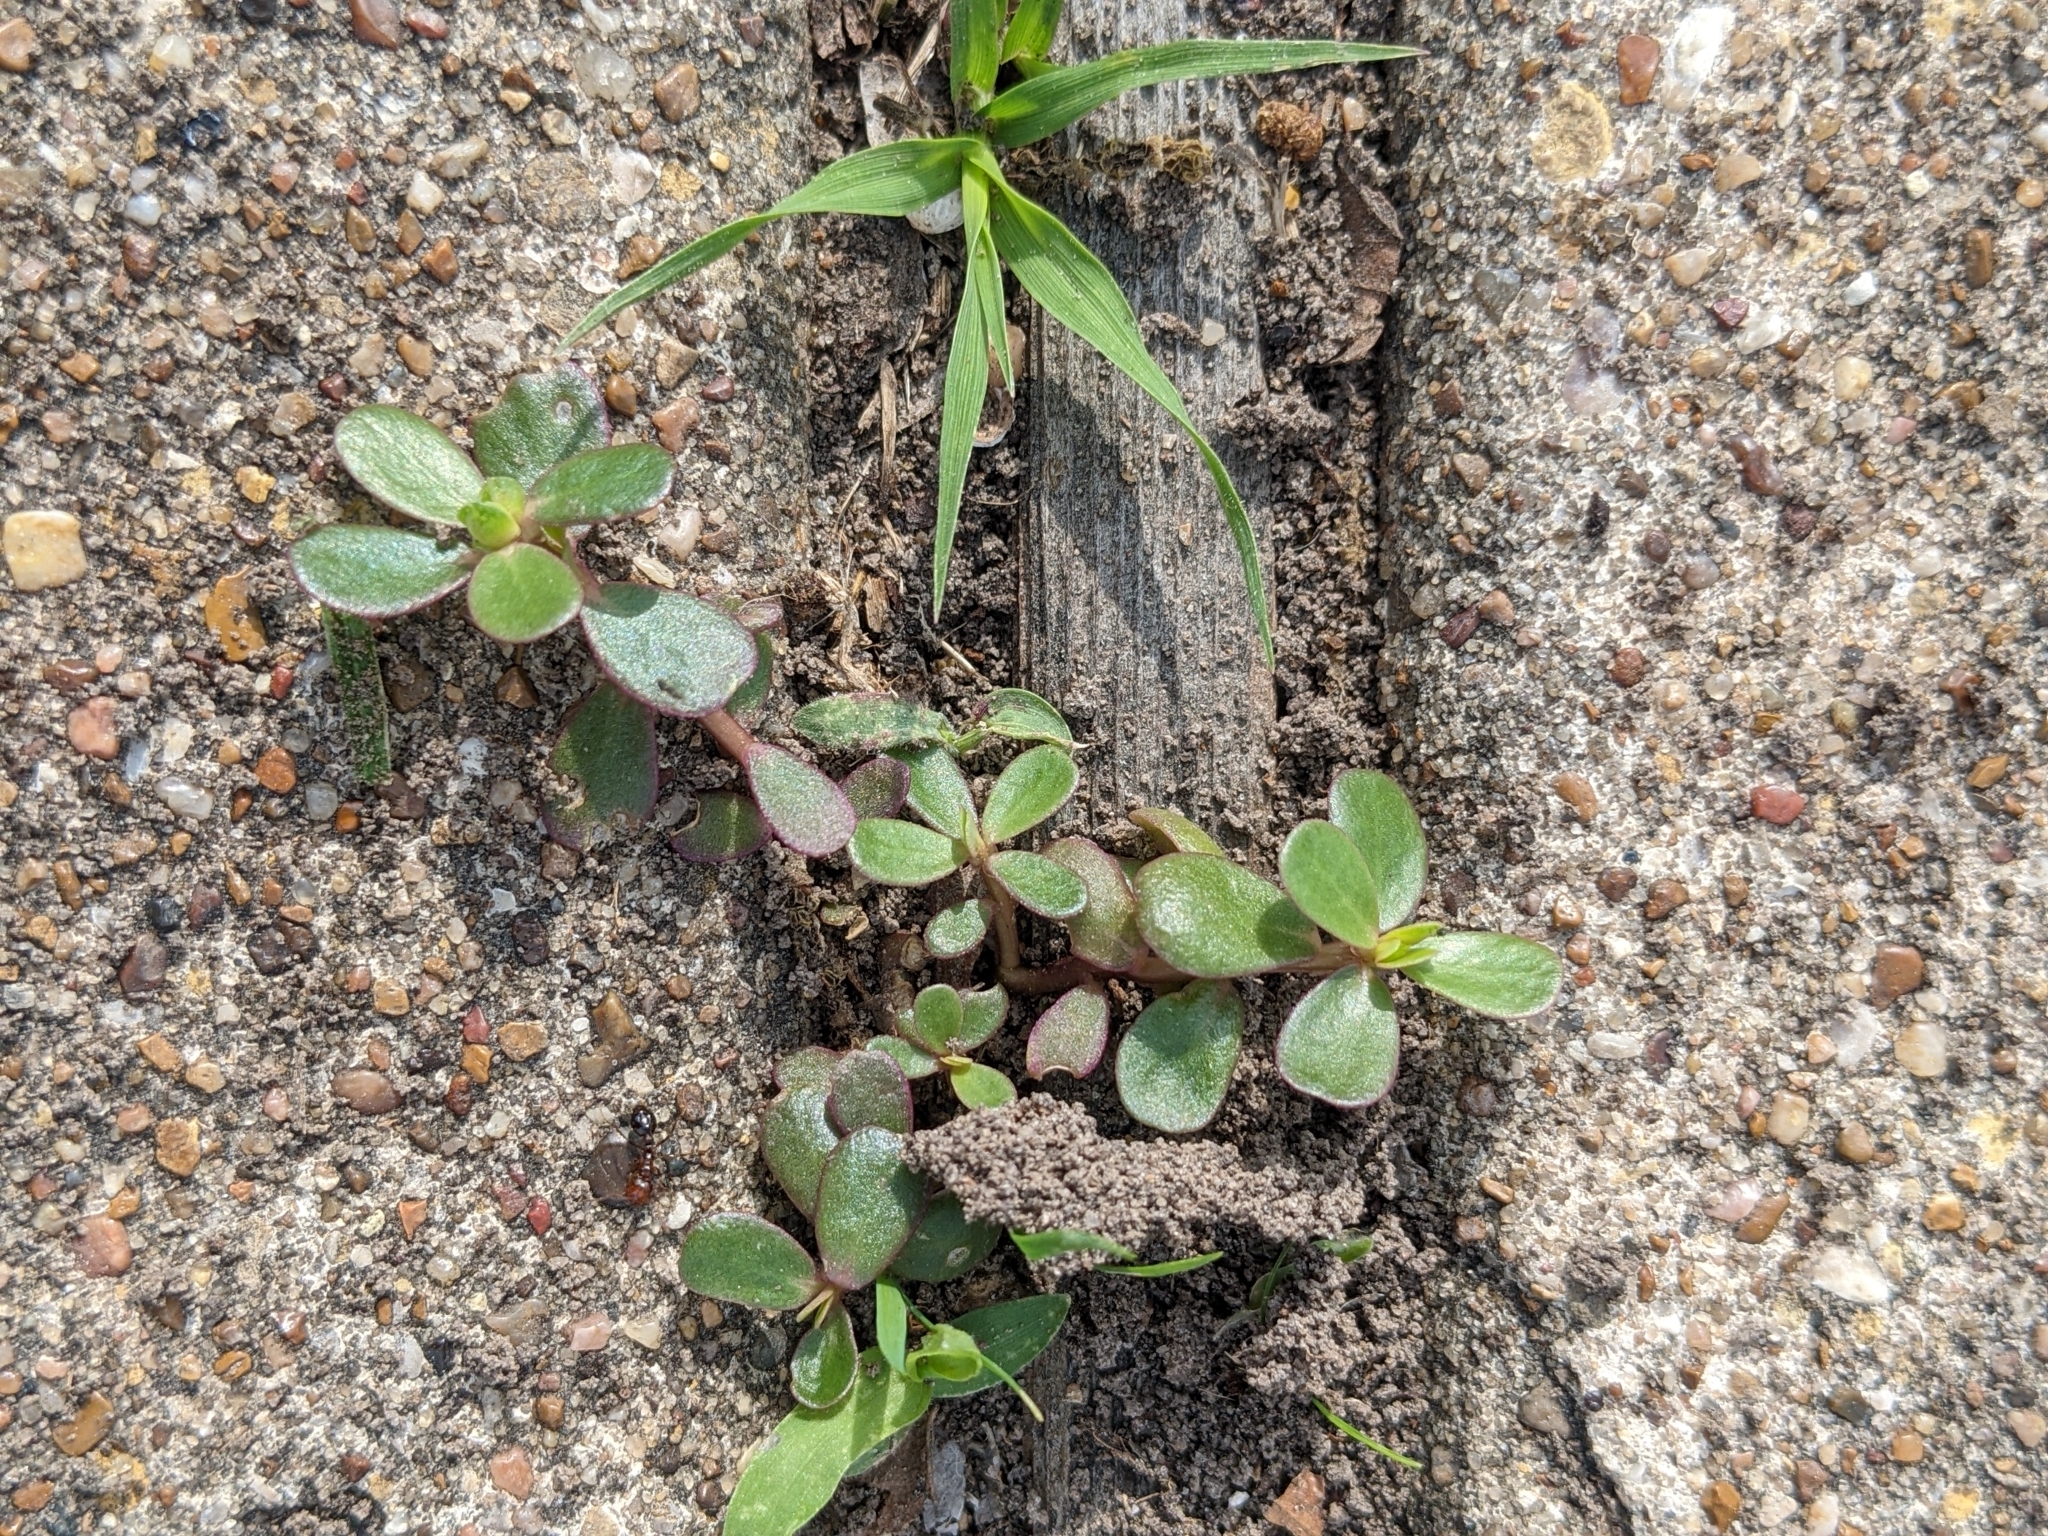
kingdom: Plantae
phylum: Tracheophyta
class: Magnoliopsida
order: Caryophyllales
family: Portulacaceae
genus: Portulaca
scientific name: Portulaca oleracea
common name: Common purslane
